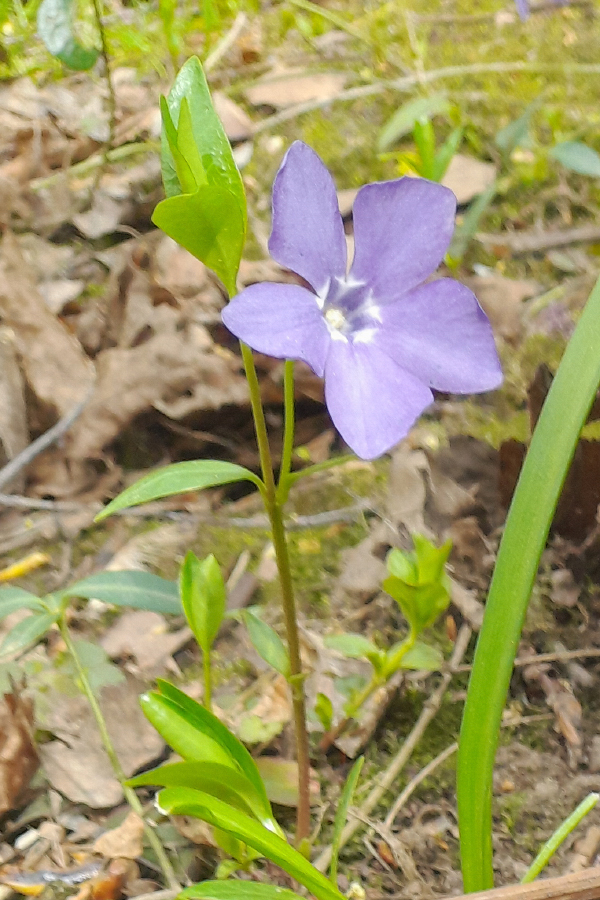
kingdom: Plantae
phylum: Tracheophyta
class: Magnoliopsida
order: Gentianales
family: Apocynaceae
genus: Vinca
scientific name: Vinca minor
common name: Lesser periwinkle
